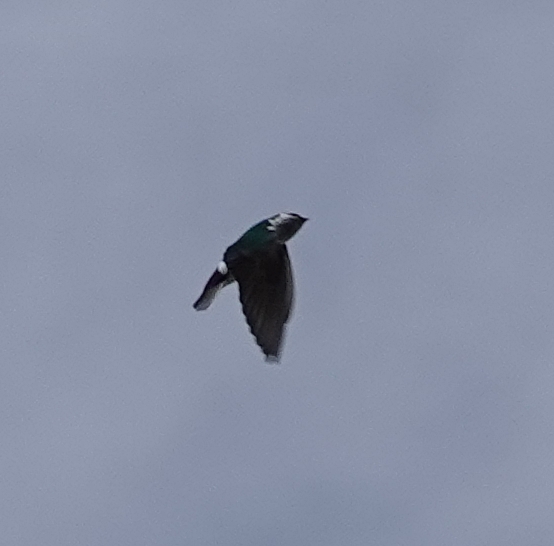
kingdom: Animalia
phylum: Chordata
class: Aves
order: Passeriformes
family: Hirundinidae
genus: Tachycineta
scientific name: Tachycineta thalassina
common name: Violet-green swallow
